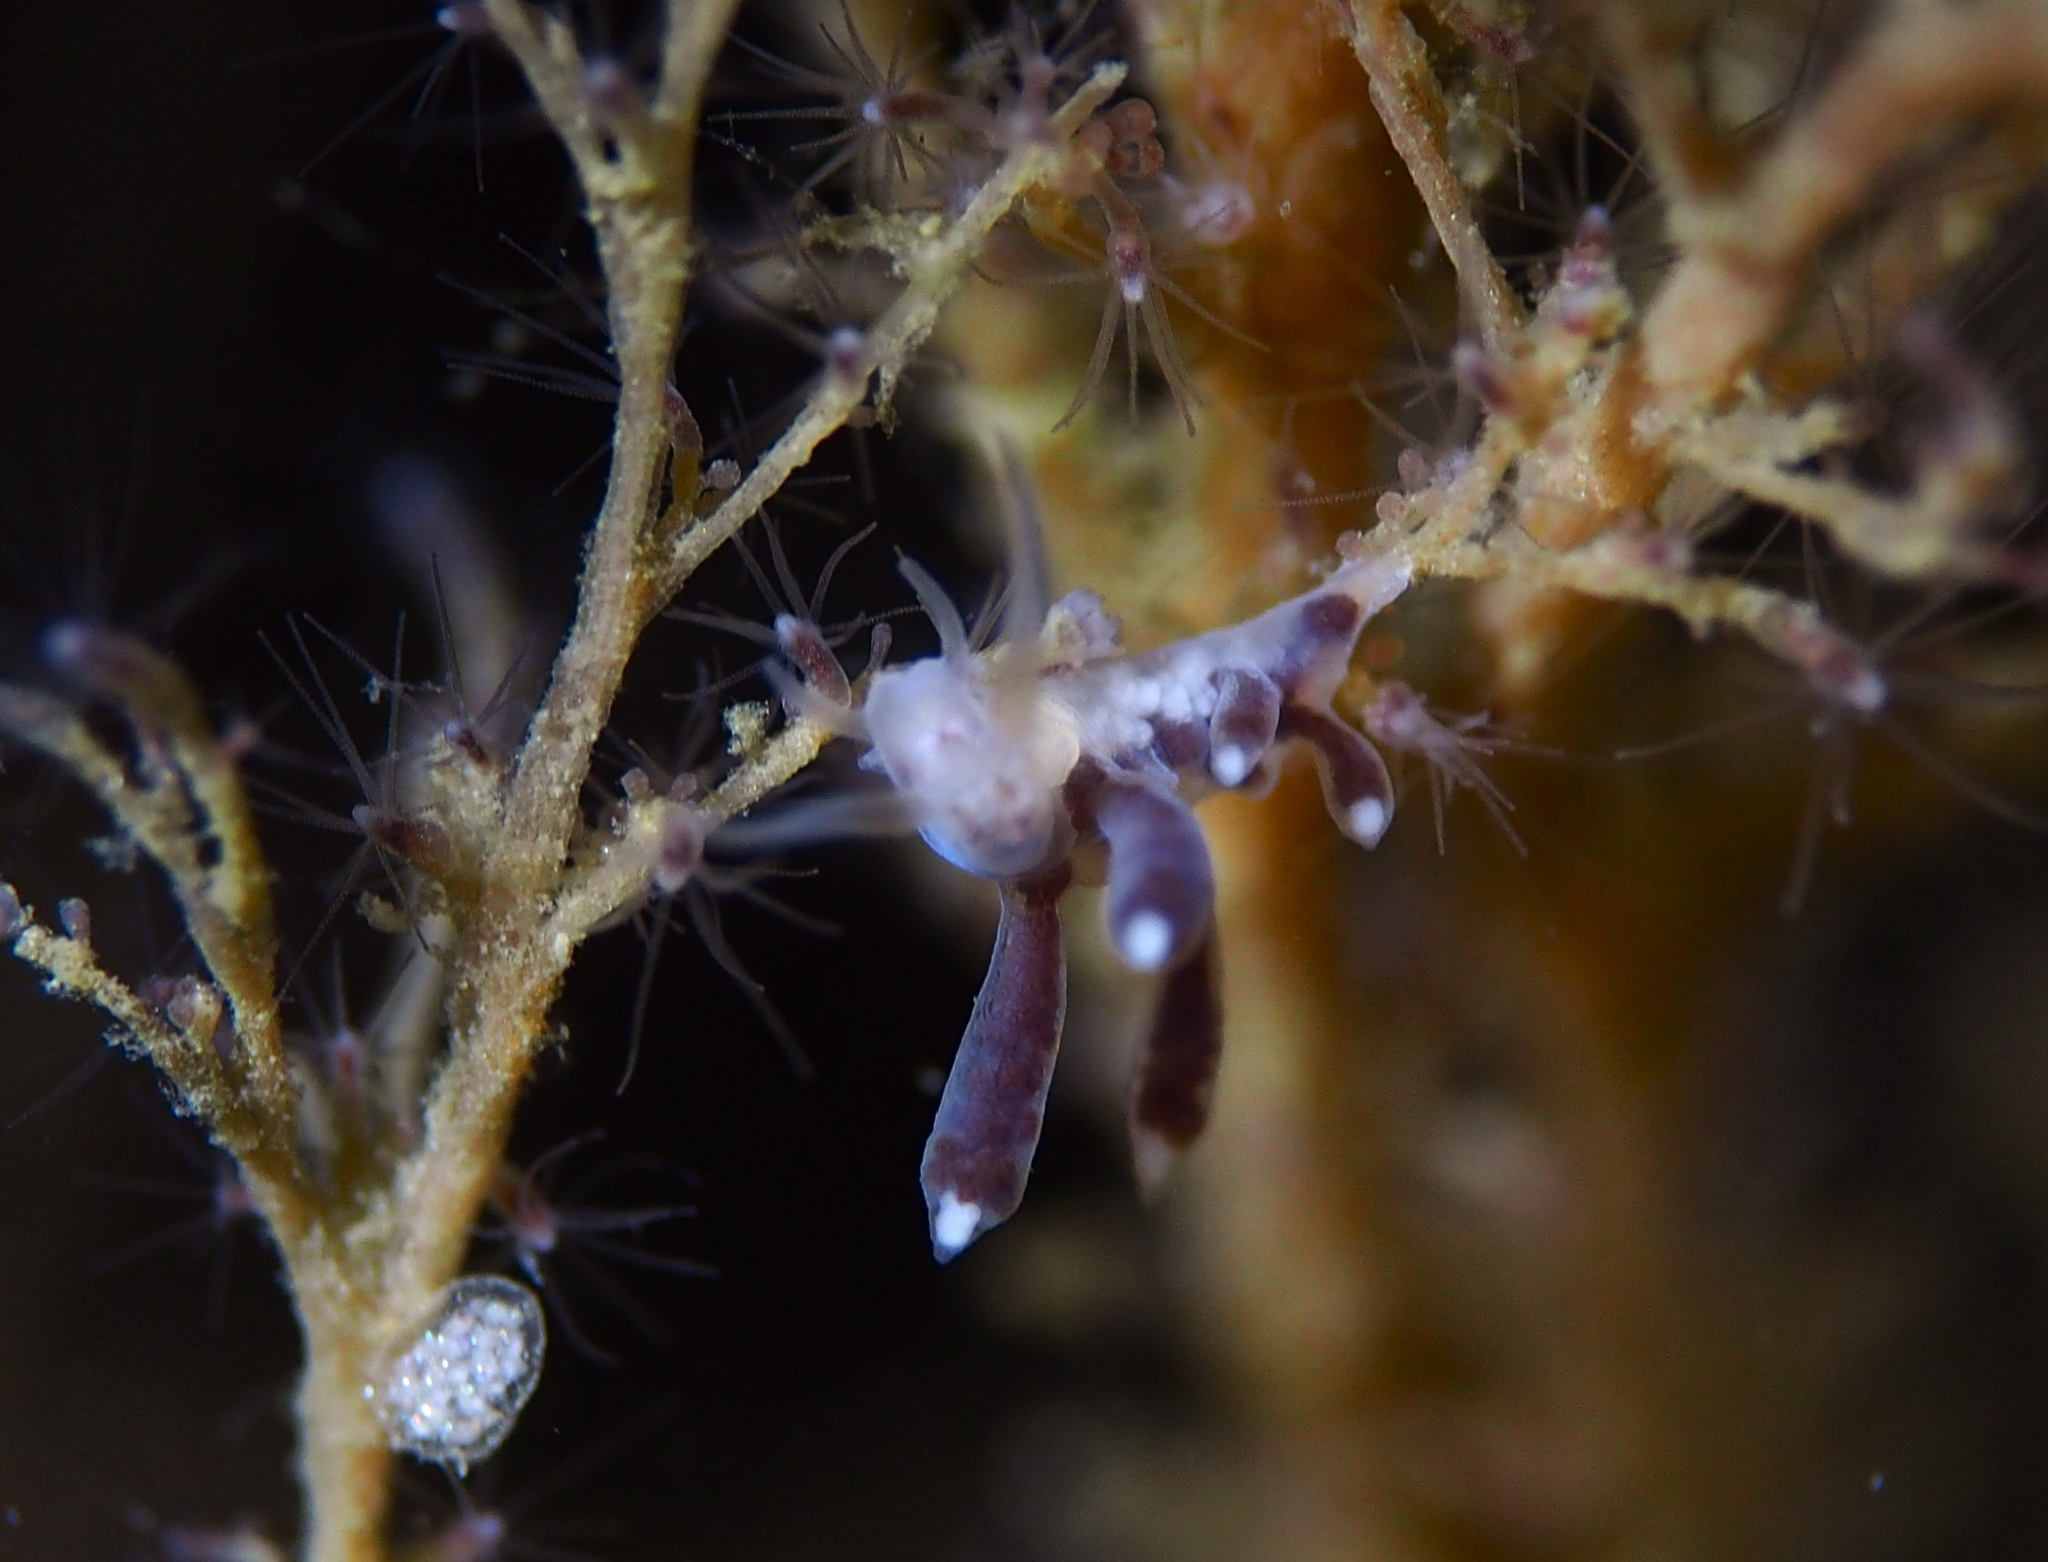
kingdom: Animalia
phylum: Mollusca
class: Gastropoda
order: Nudibranchia
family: Tergipedidae
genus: Tergipes
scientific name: Tergipes tergipes
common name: Johnston's balloon eolis
